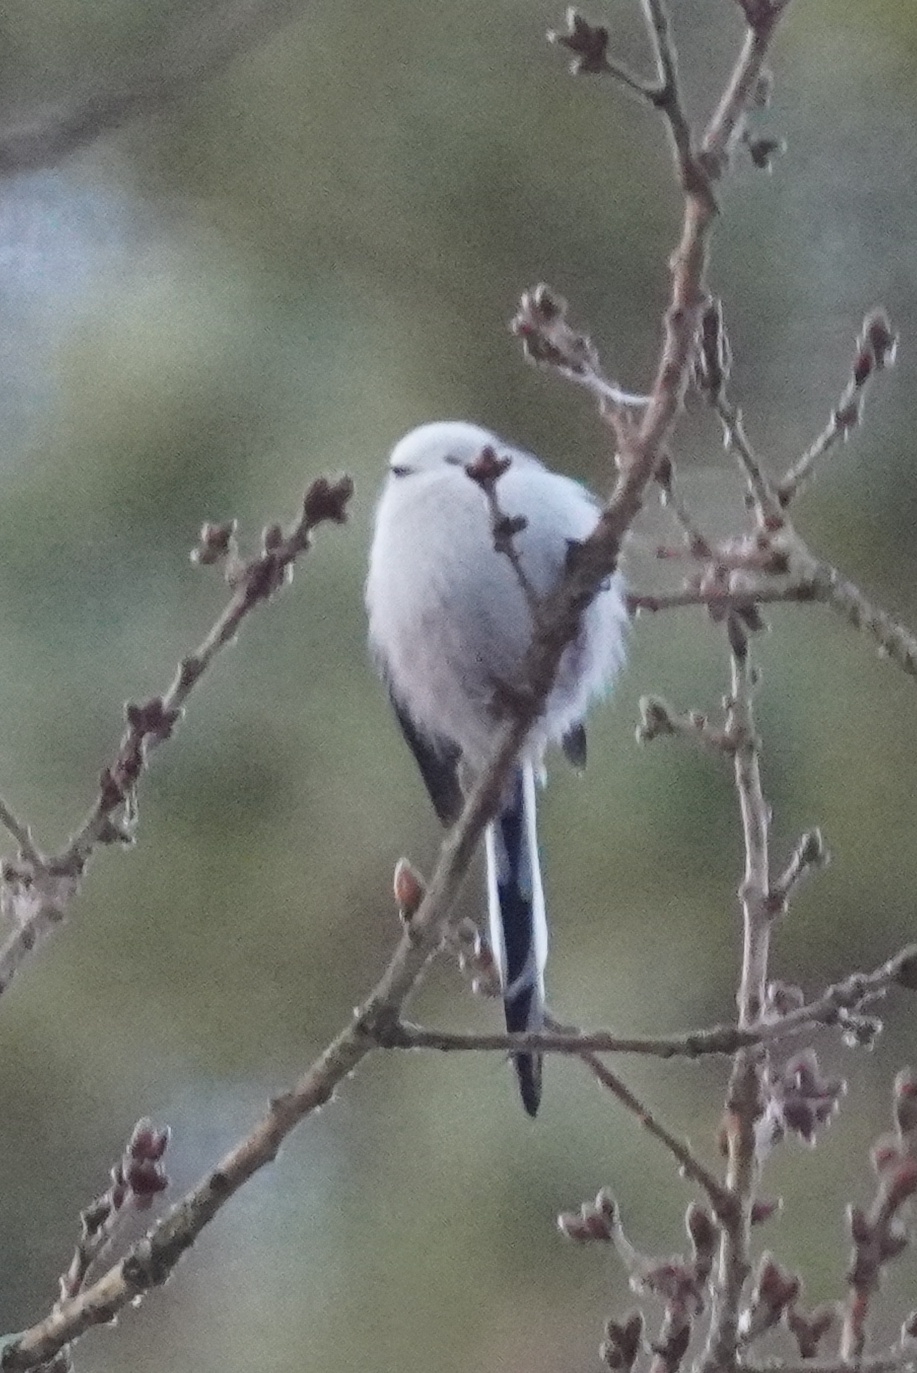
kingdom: Animalia
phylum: Chordata
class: Aves
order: Passeriformes
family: Aegithalidae
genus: Aegithalos
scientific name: Aegithalos caudatus
